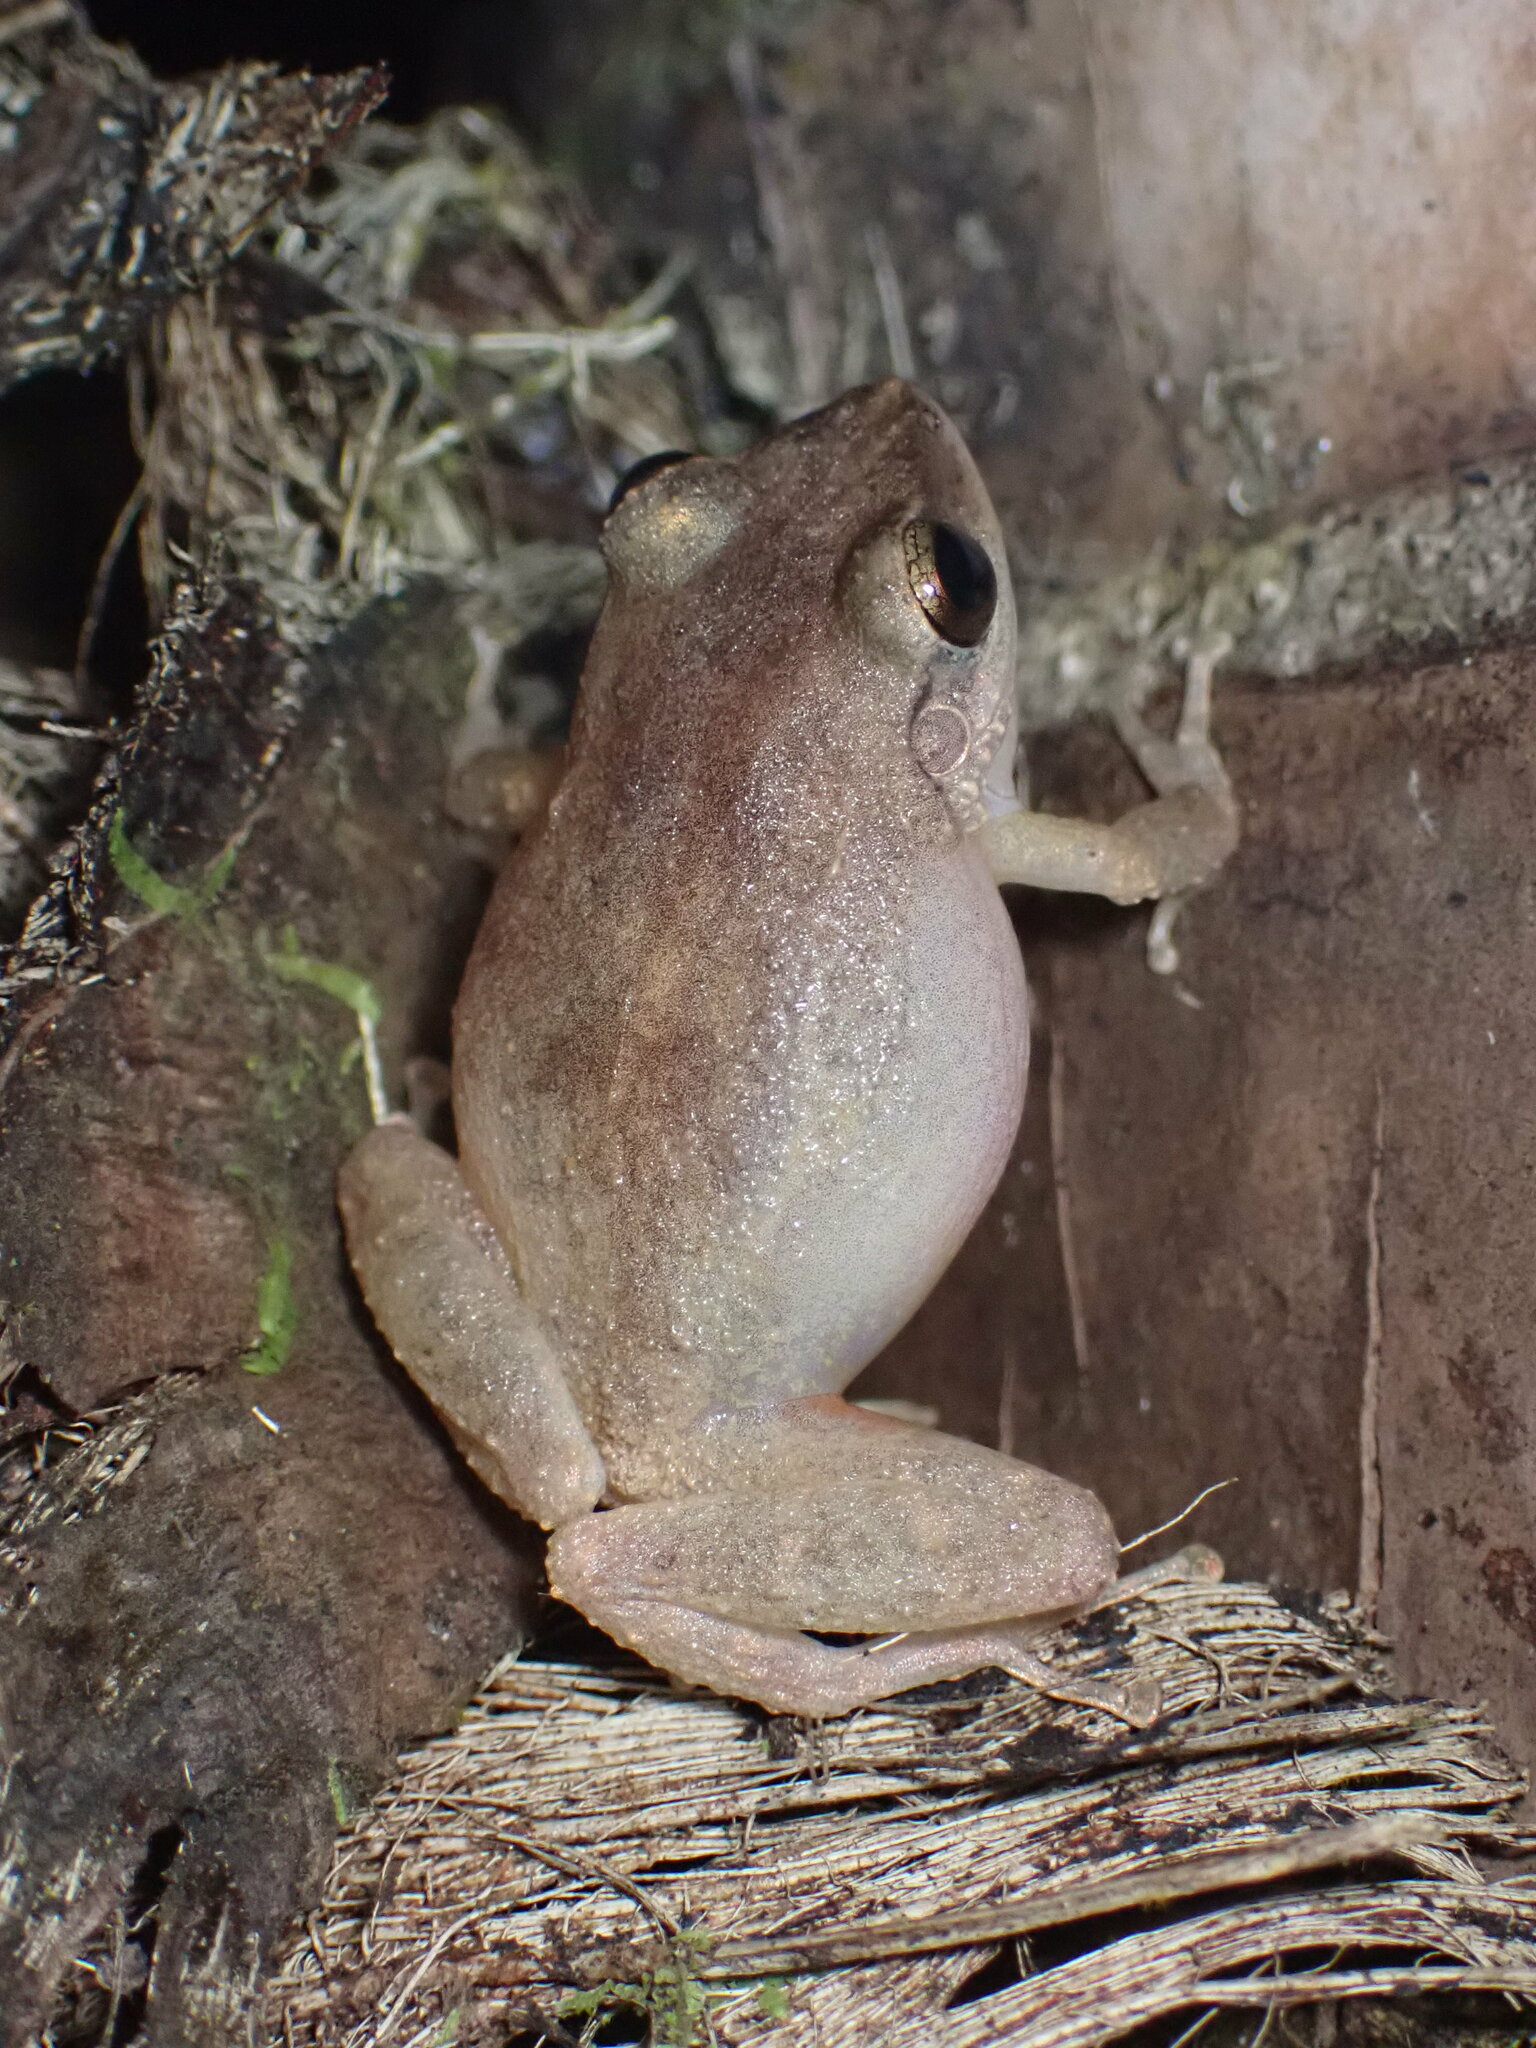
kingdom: Animalia
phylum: Chordata
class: Amphibia
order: Anura
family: Eleutherodactylidae
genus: Eleutherodactylus
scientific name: Eleutherodactylus coqui
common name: Coqui frog
